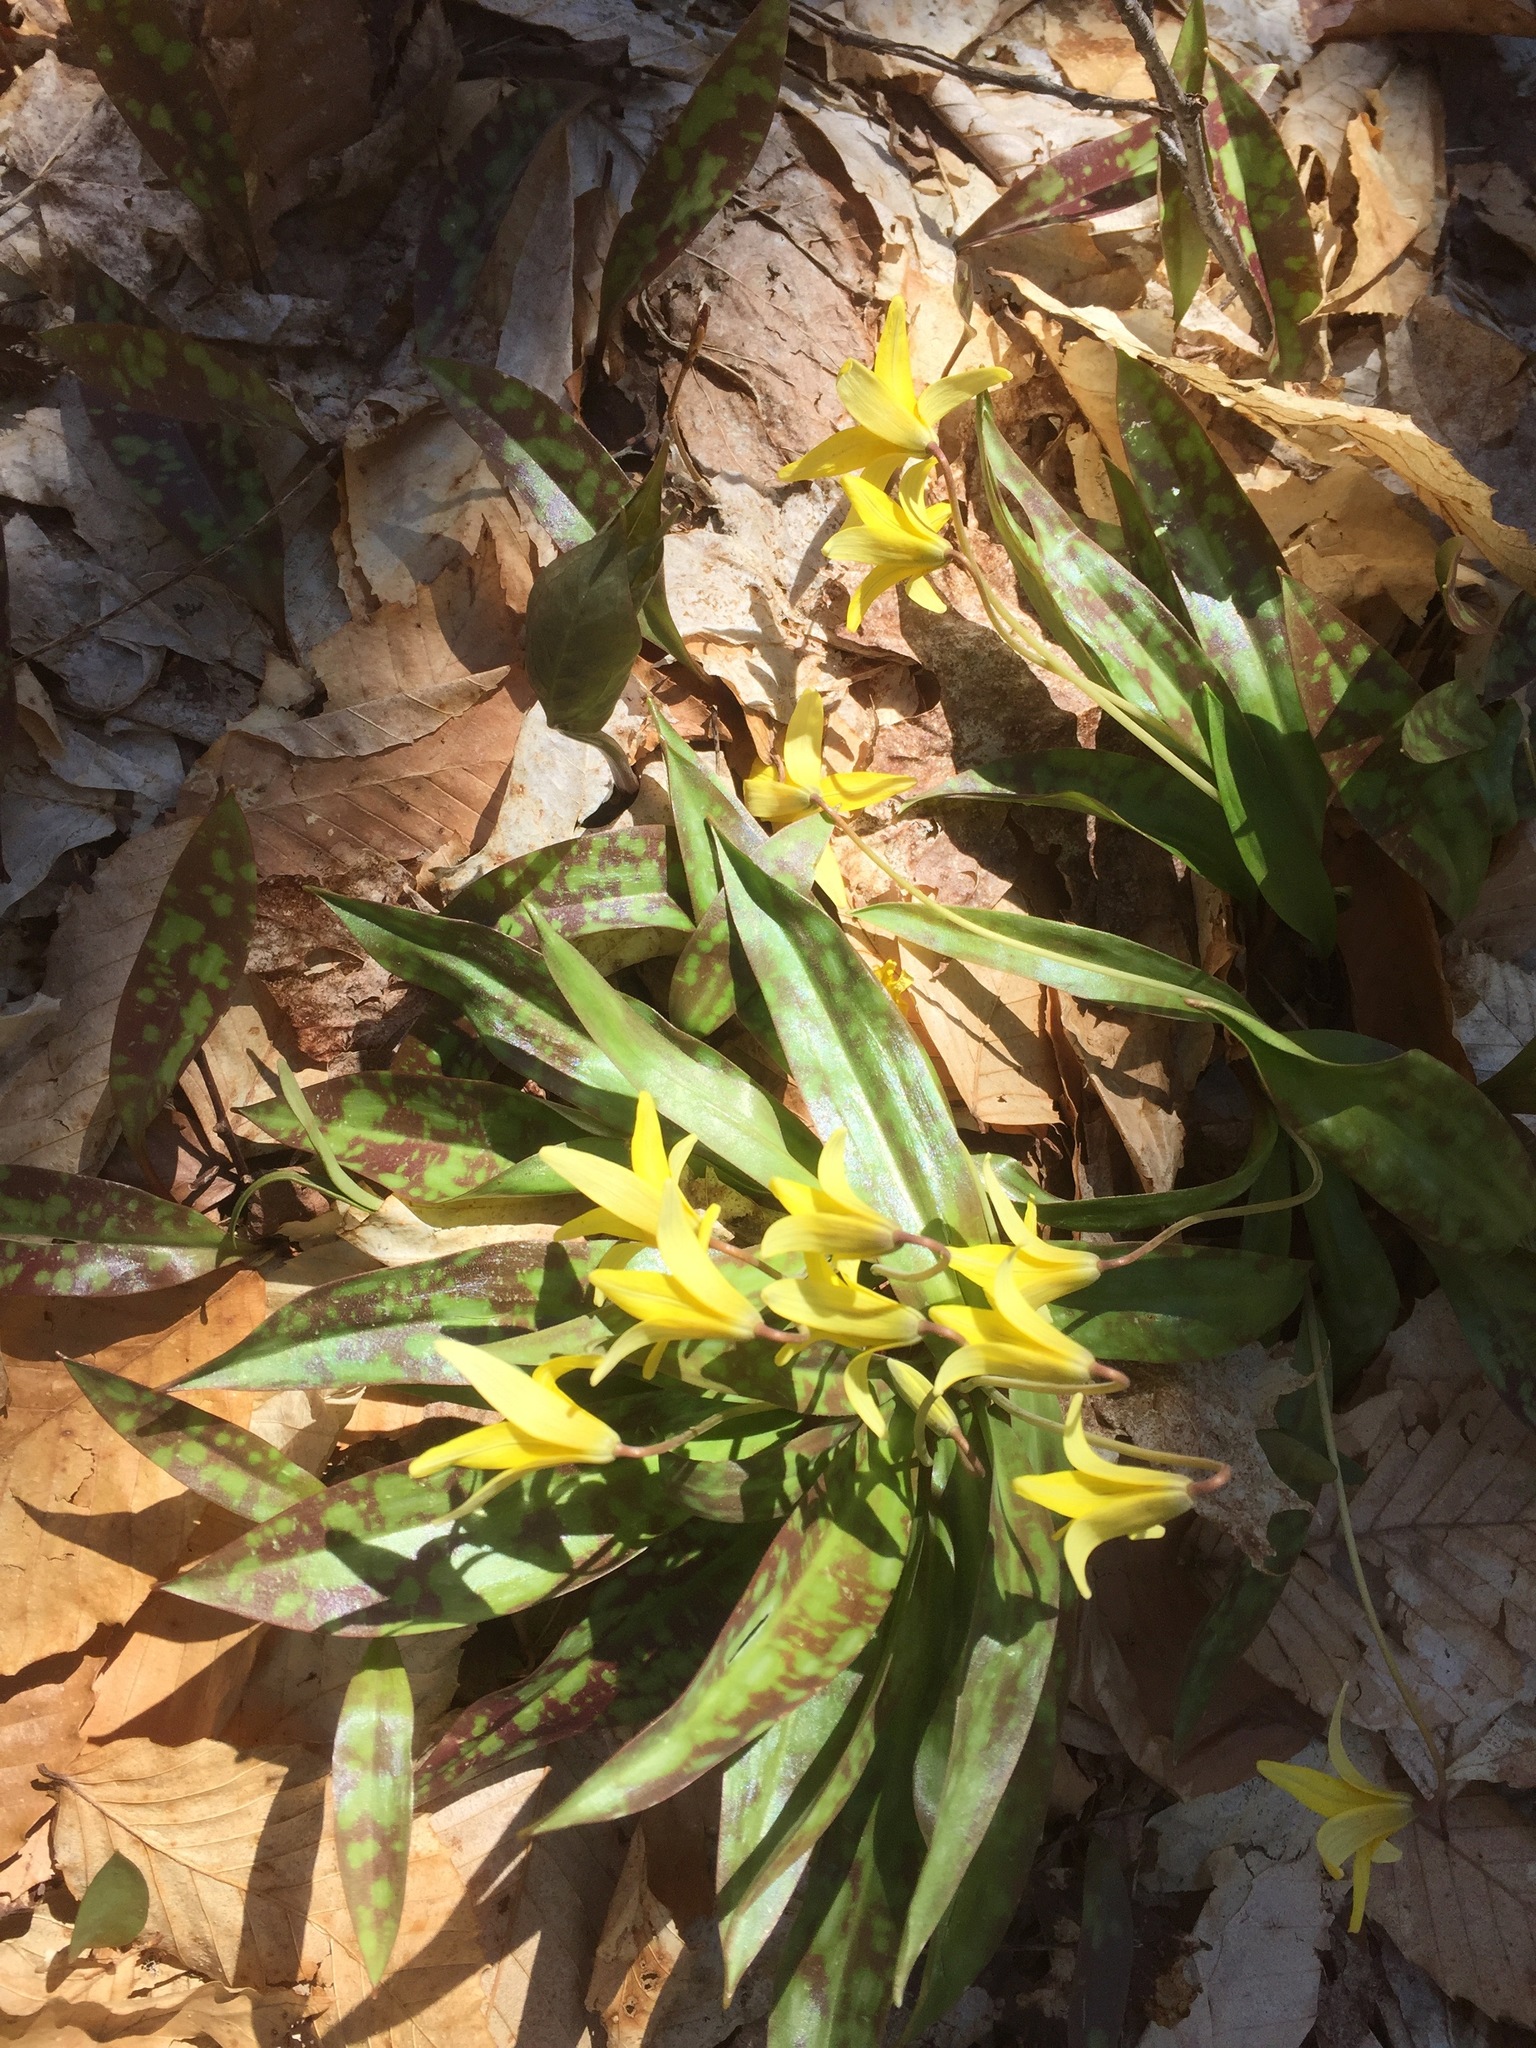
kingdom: Plantae
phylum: Tracheophyta
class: Liliopsida
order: Liliales
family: Liliaceae
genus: Erythronium
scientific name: Erythronium americanum
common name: Yellow adder's-tongue
